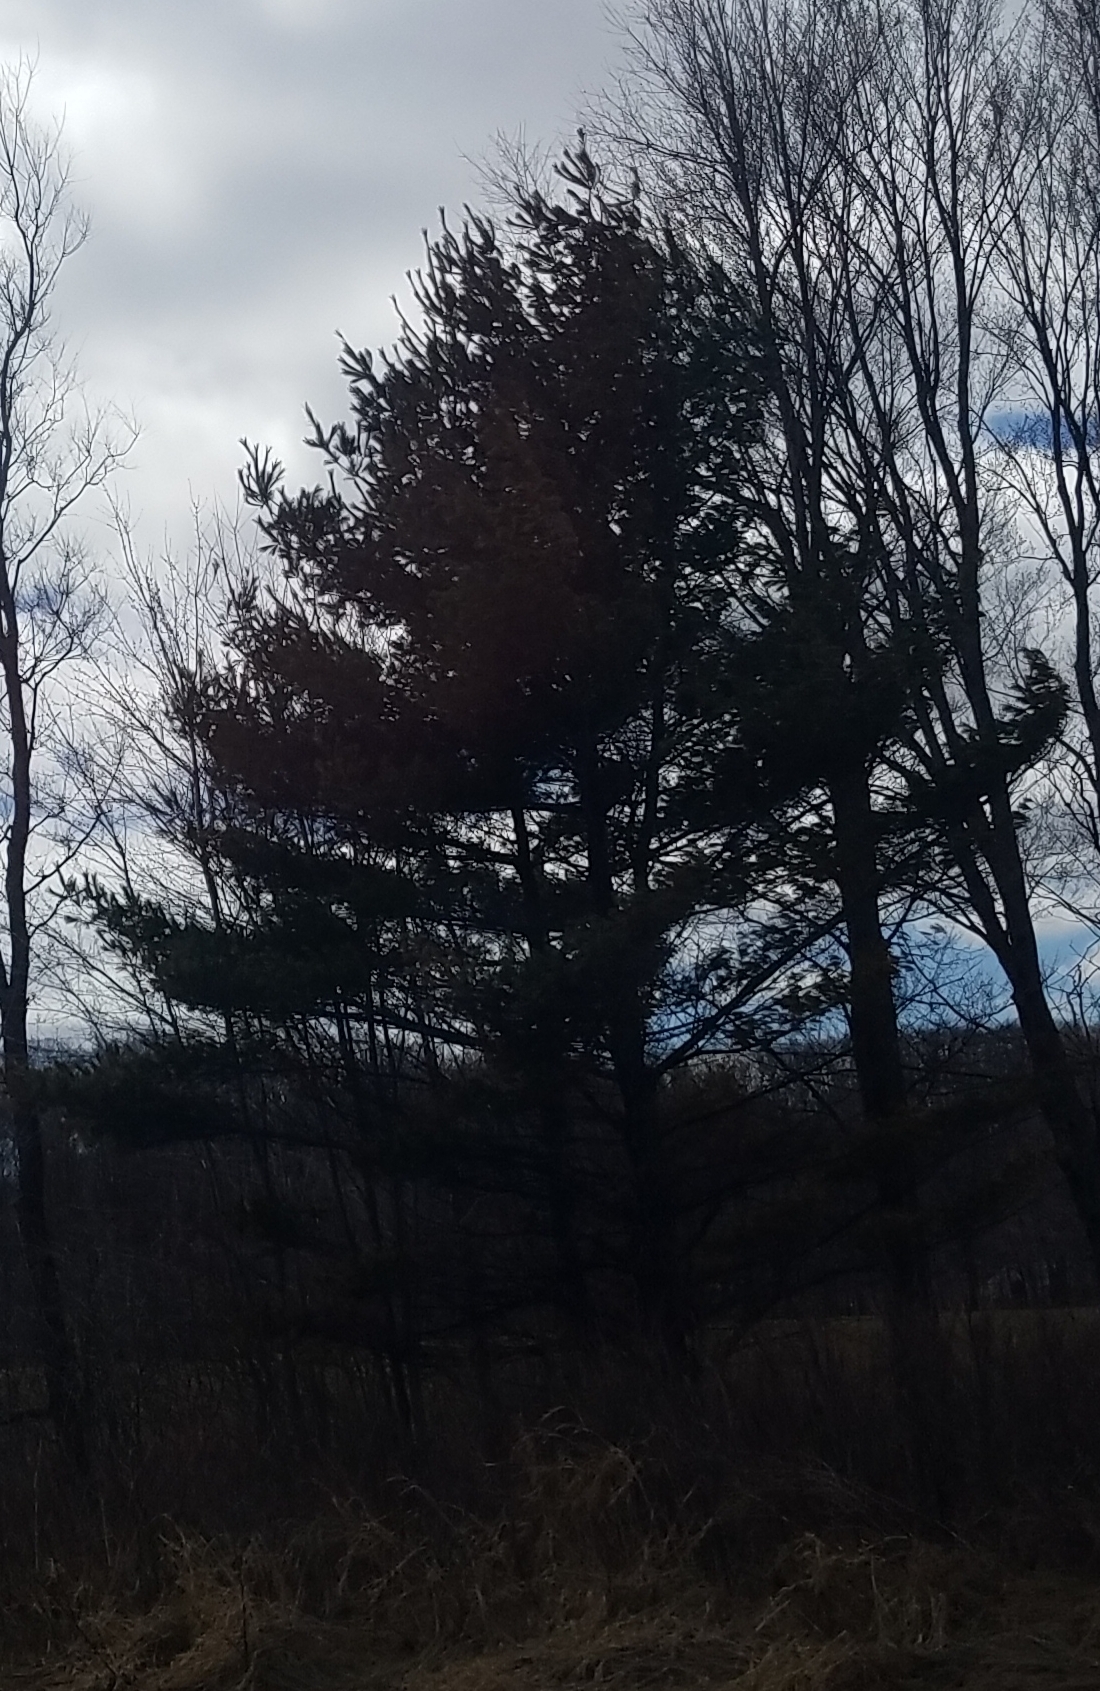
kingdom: Plantae
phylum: Tracheophyta
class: Pinopsida
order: Pinales
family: Pinaceae
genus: Pinus
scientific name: Pinus strobus
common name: Weymouth pine
